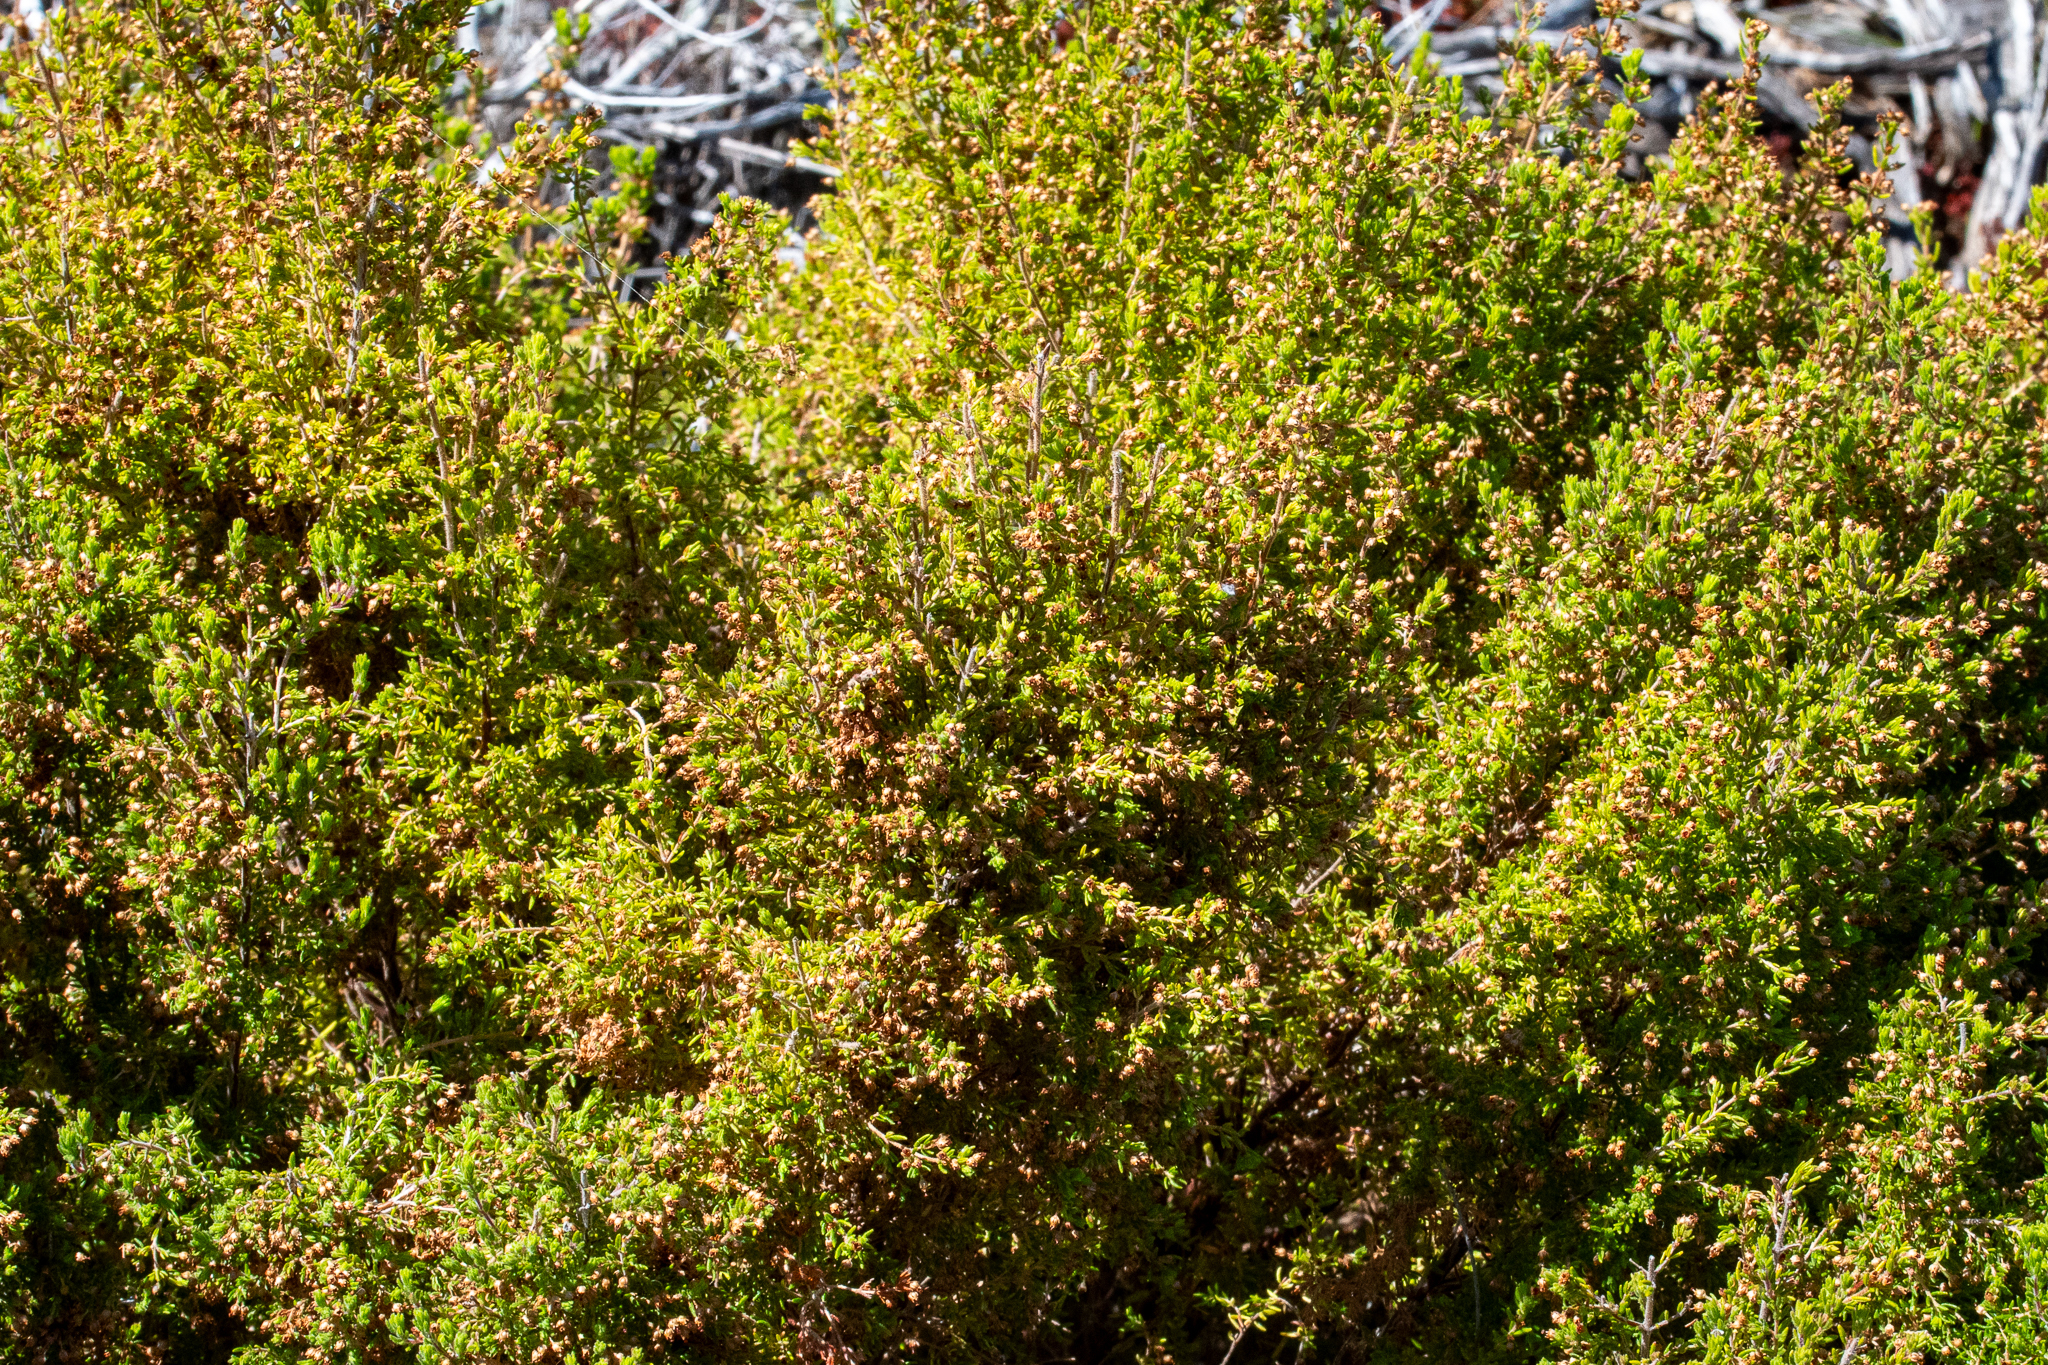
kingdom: Plantae
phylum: Tracheophyta
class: Magnoliopsida
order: Ericales
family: Ericaceae
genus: Erica
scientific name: Erica hispidula
